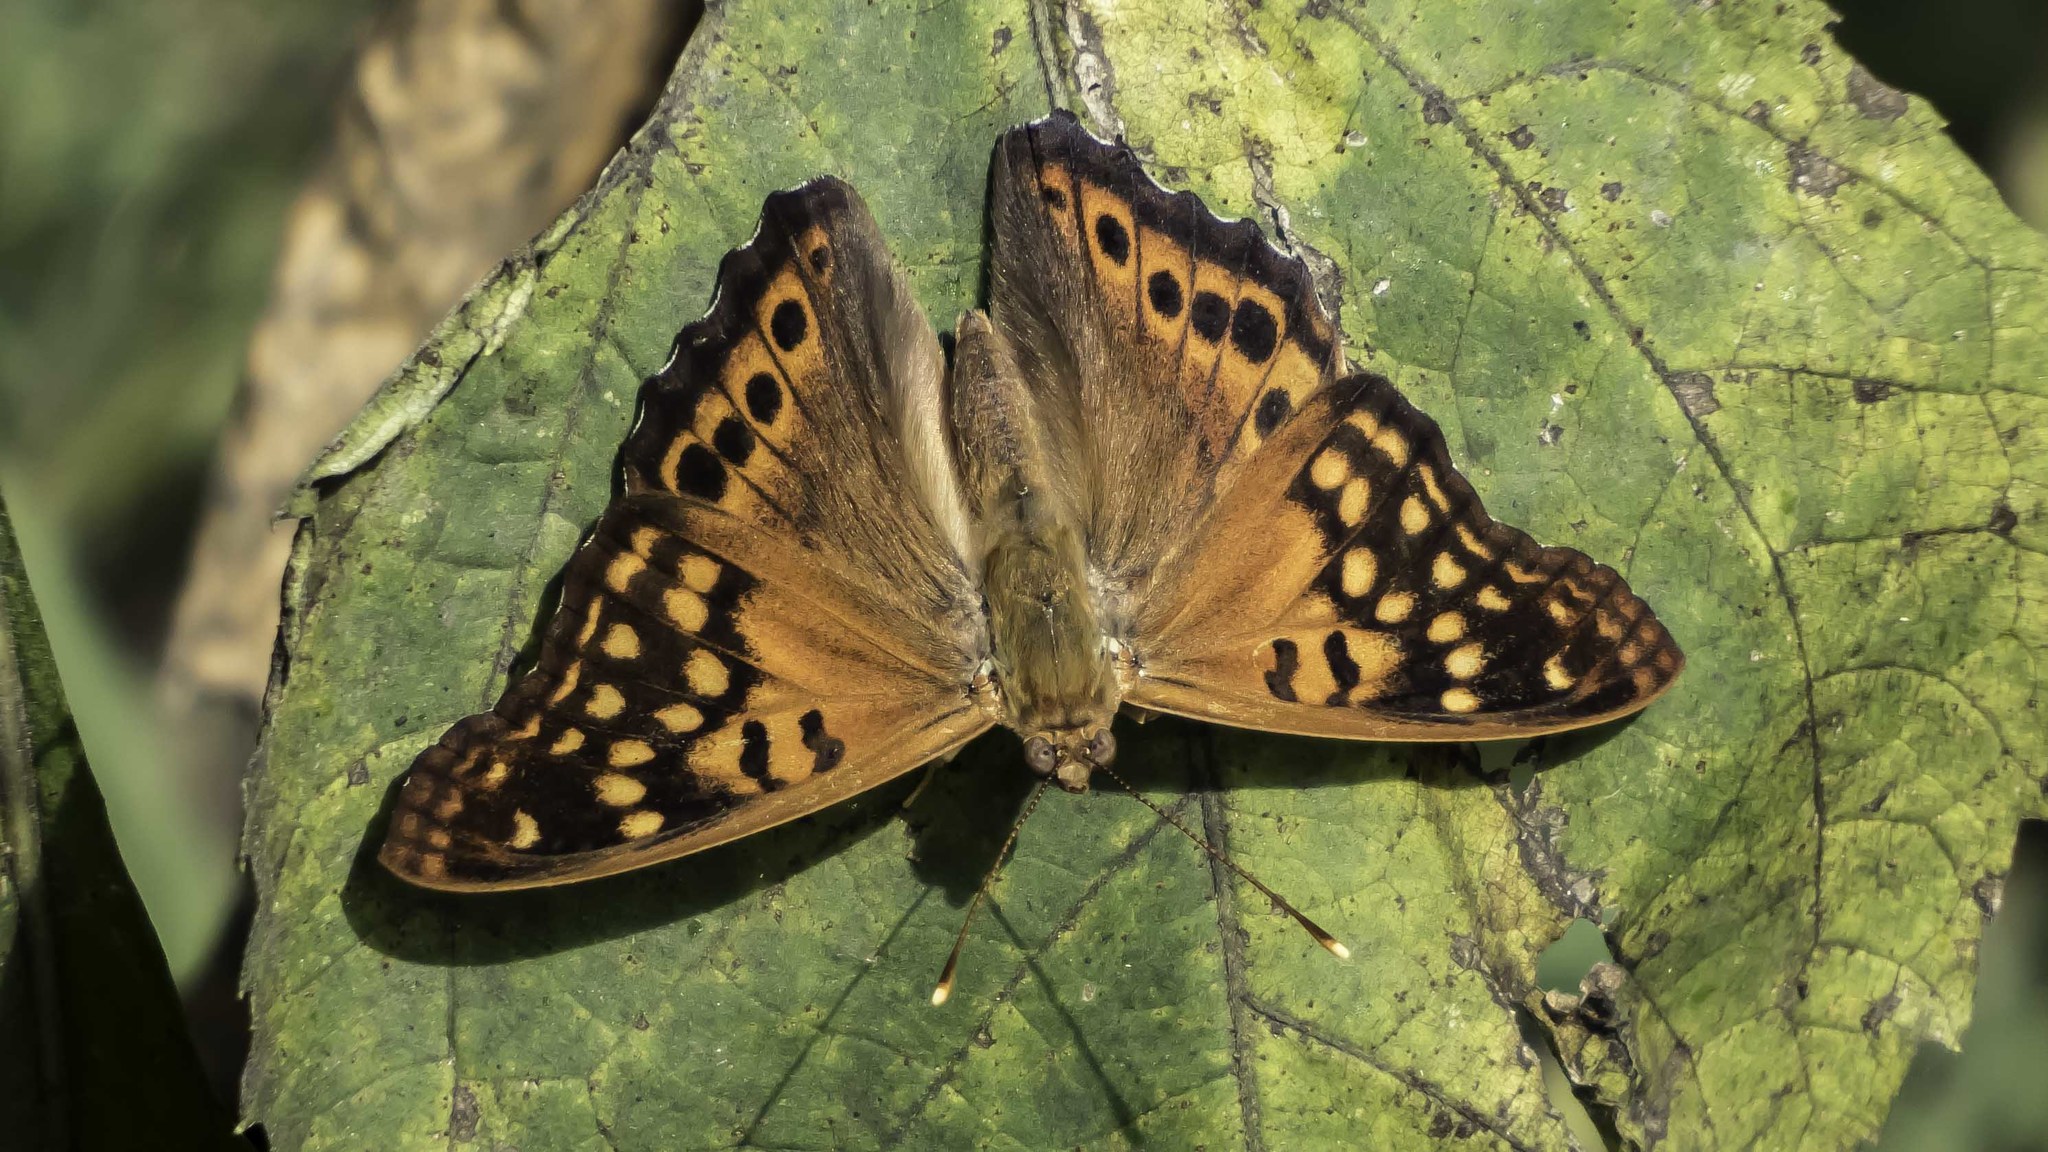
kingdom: Animalia
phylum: Arthropoda
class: Insecta
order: Lepidoptera
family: Nymphalidae
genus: Asterocampa
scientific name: Asterocampa clyton
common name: Tawny emperor
